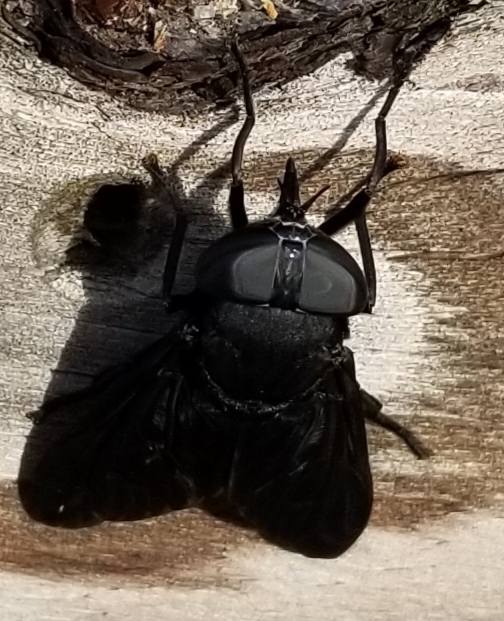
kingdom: Animalia
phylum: Arthropoda
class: Insecta
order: Diptera
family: Tabanidae
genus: Tabanus
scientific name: Tabanus atratus
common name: Black horse fly
